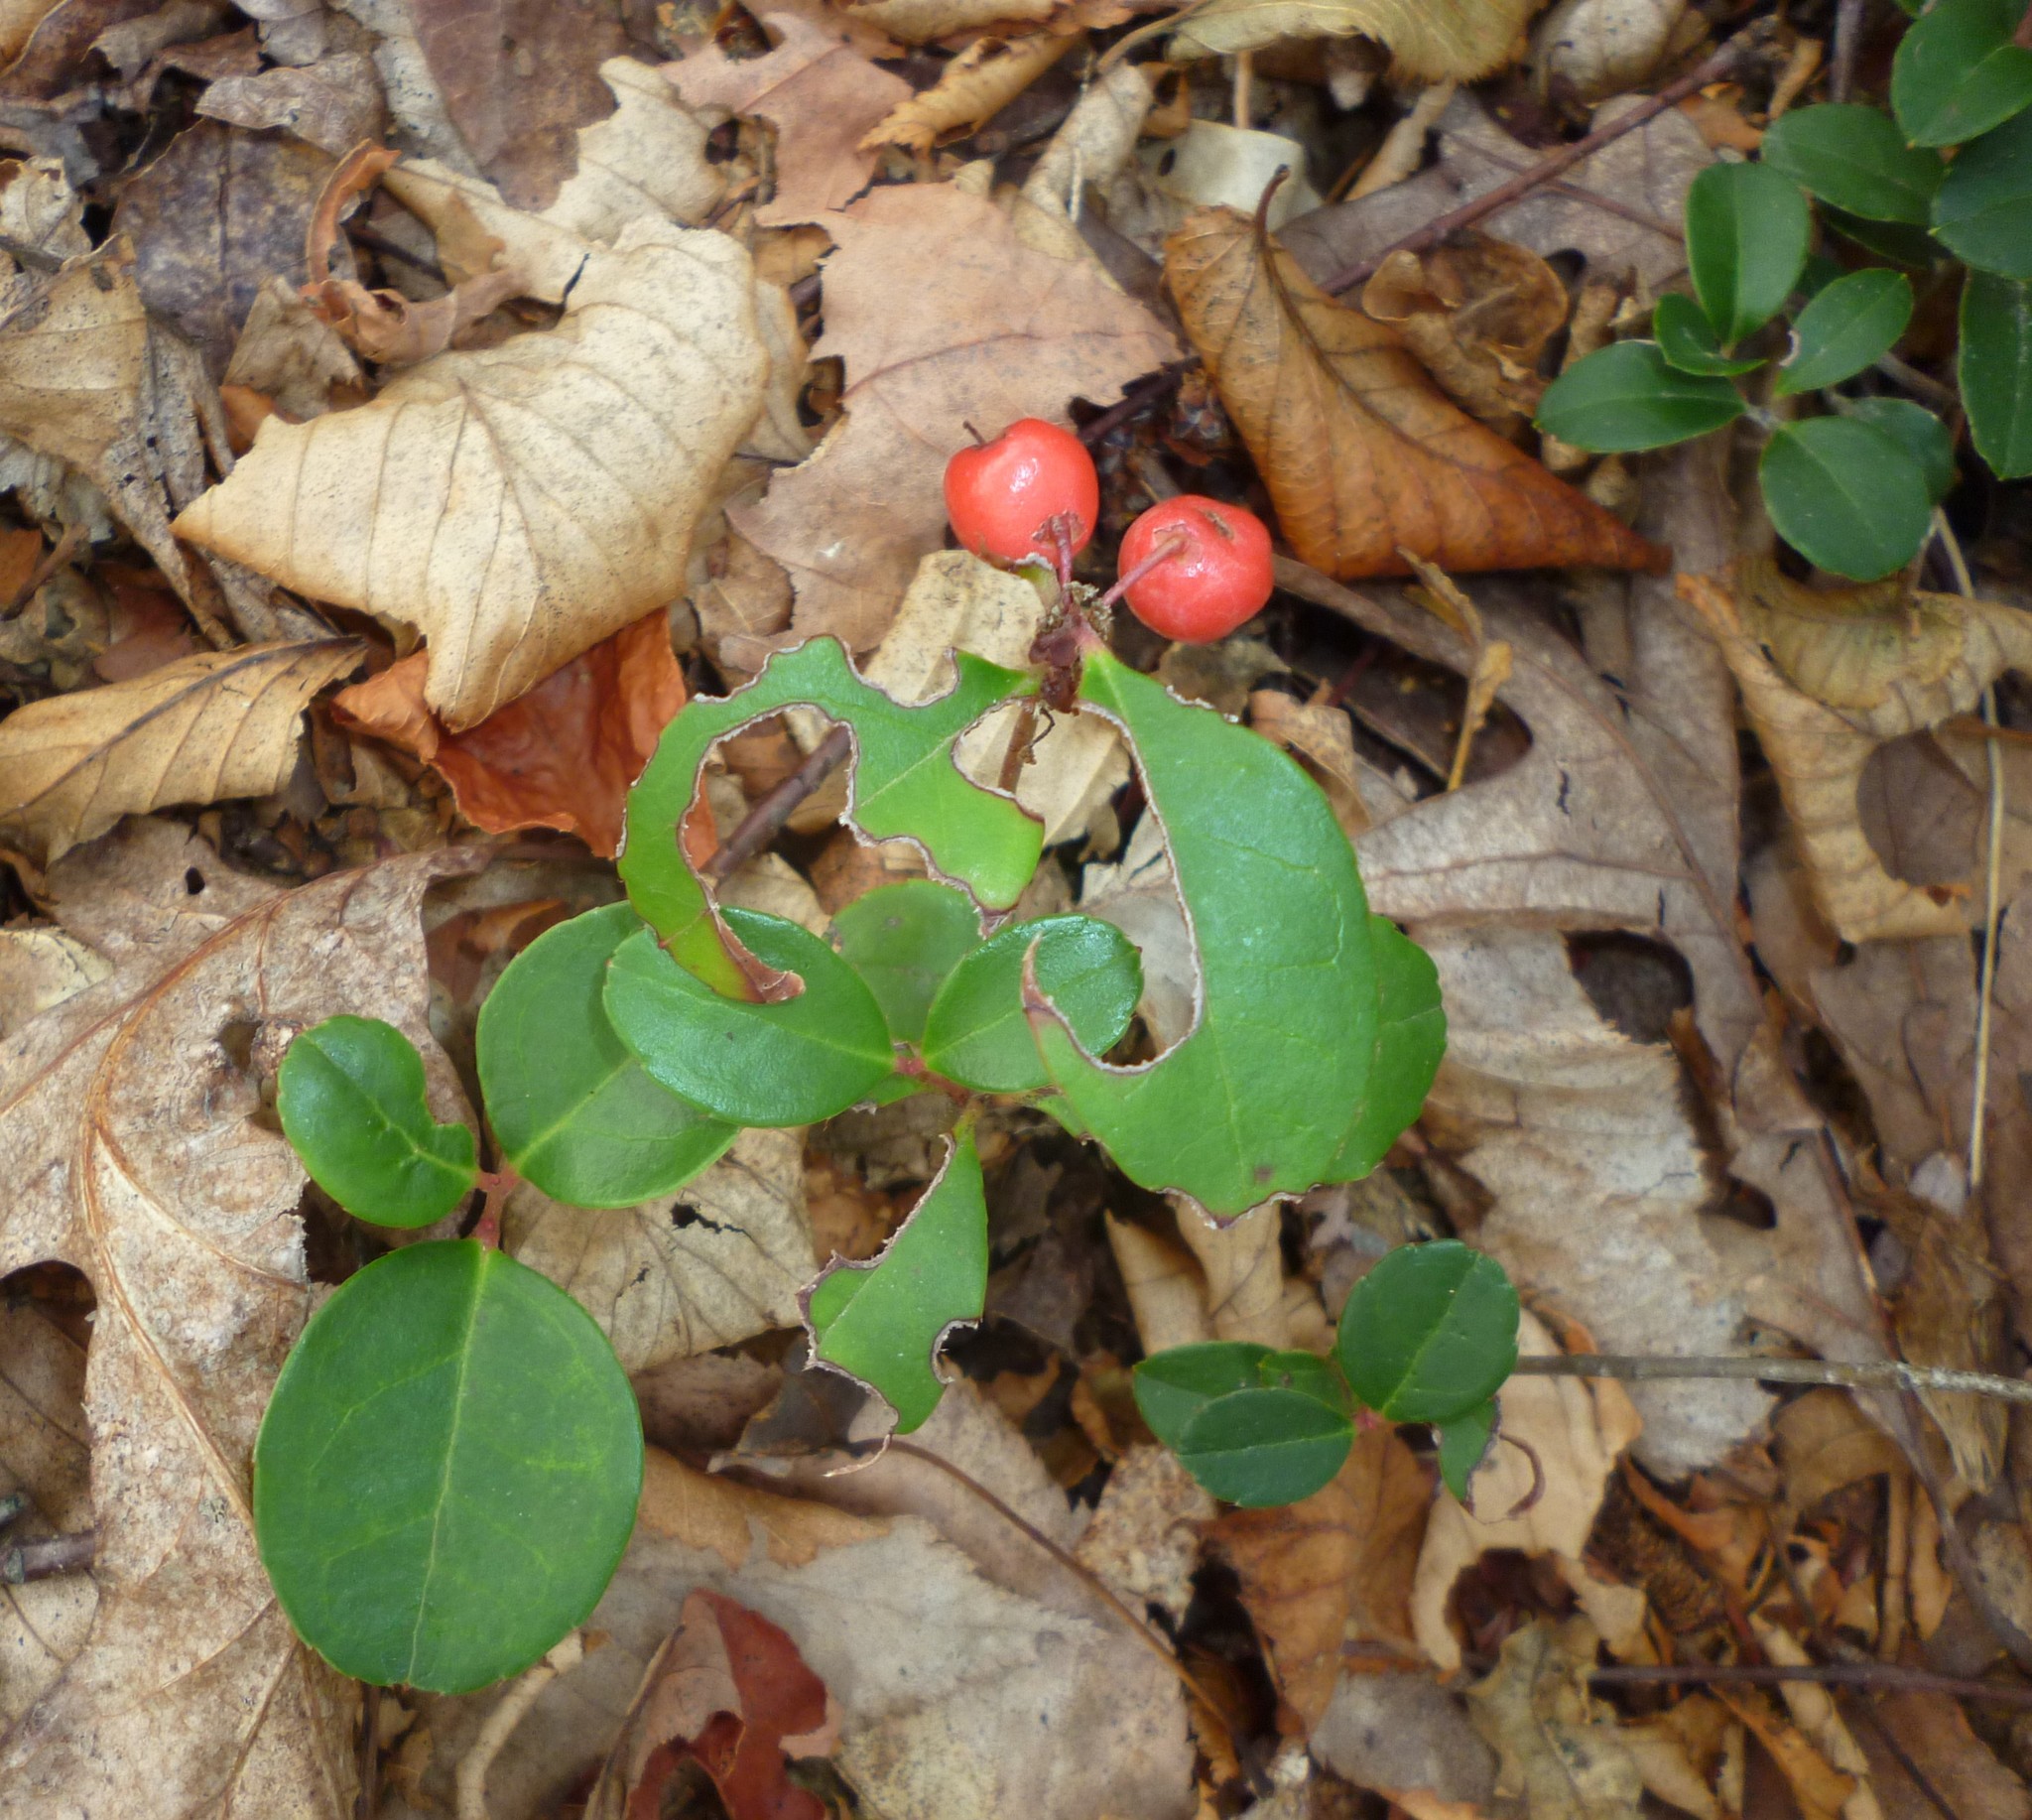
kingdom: Plantae
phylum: Tracheophyta
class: Magnoliopsida
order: Ericales
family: Ericaceae
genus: Gaultheria
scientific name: Gaultheria procumbens
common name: Checkerberry
